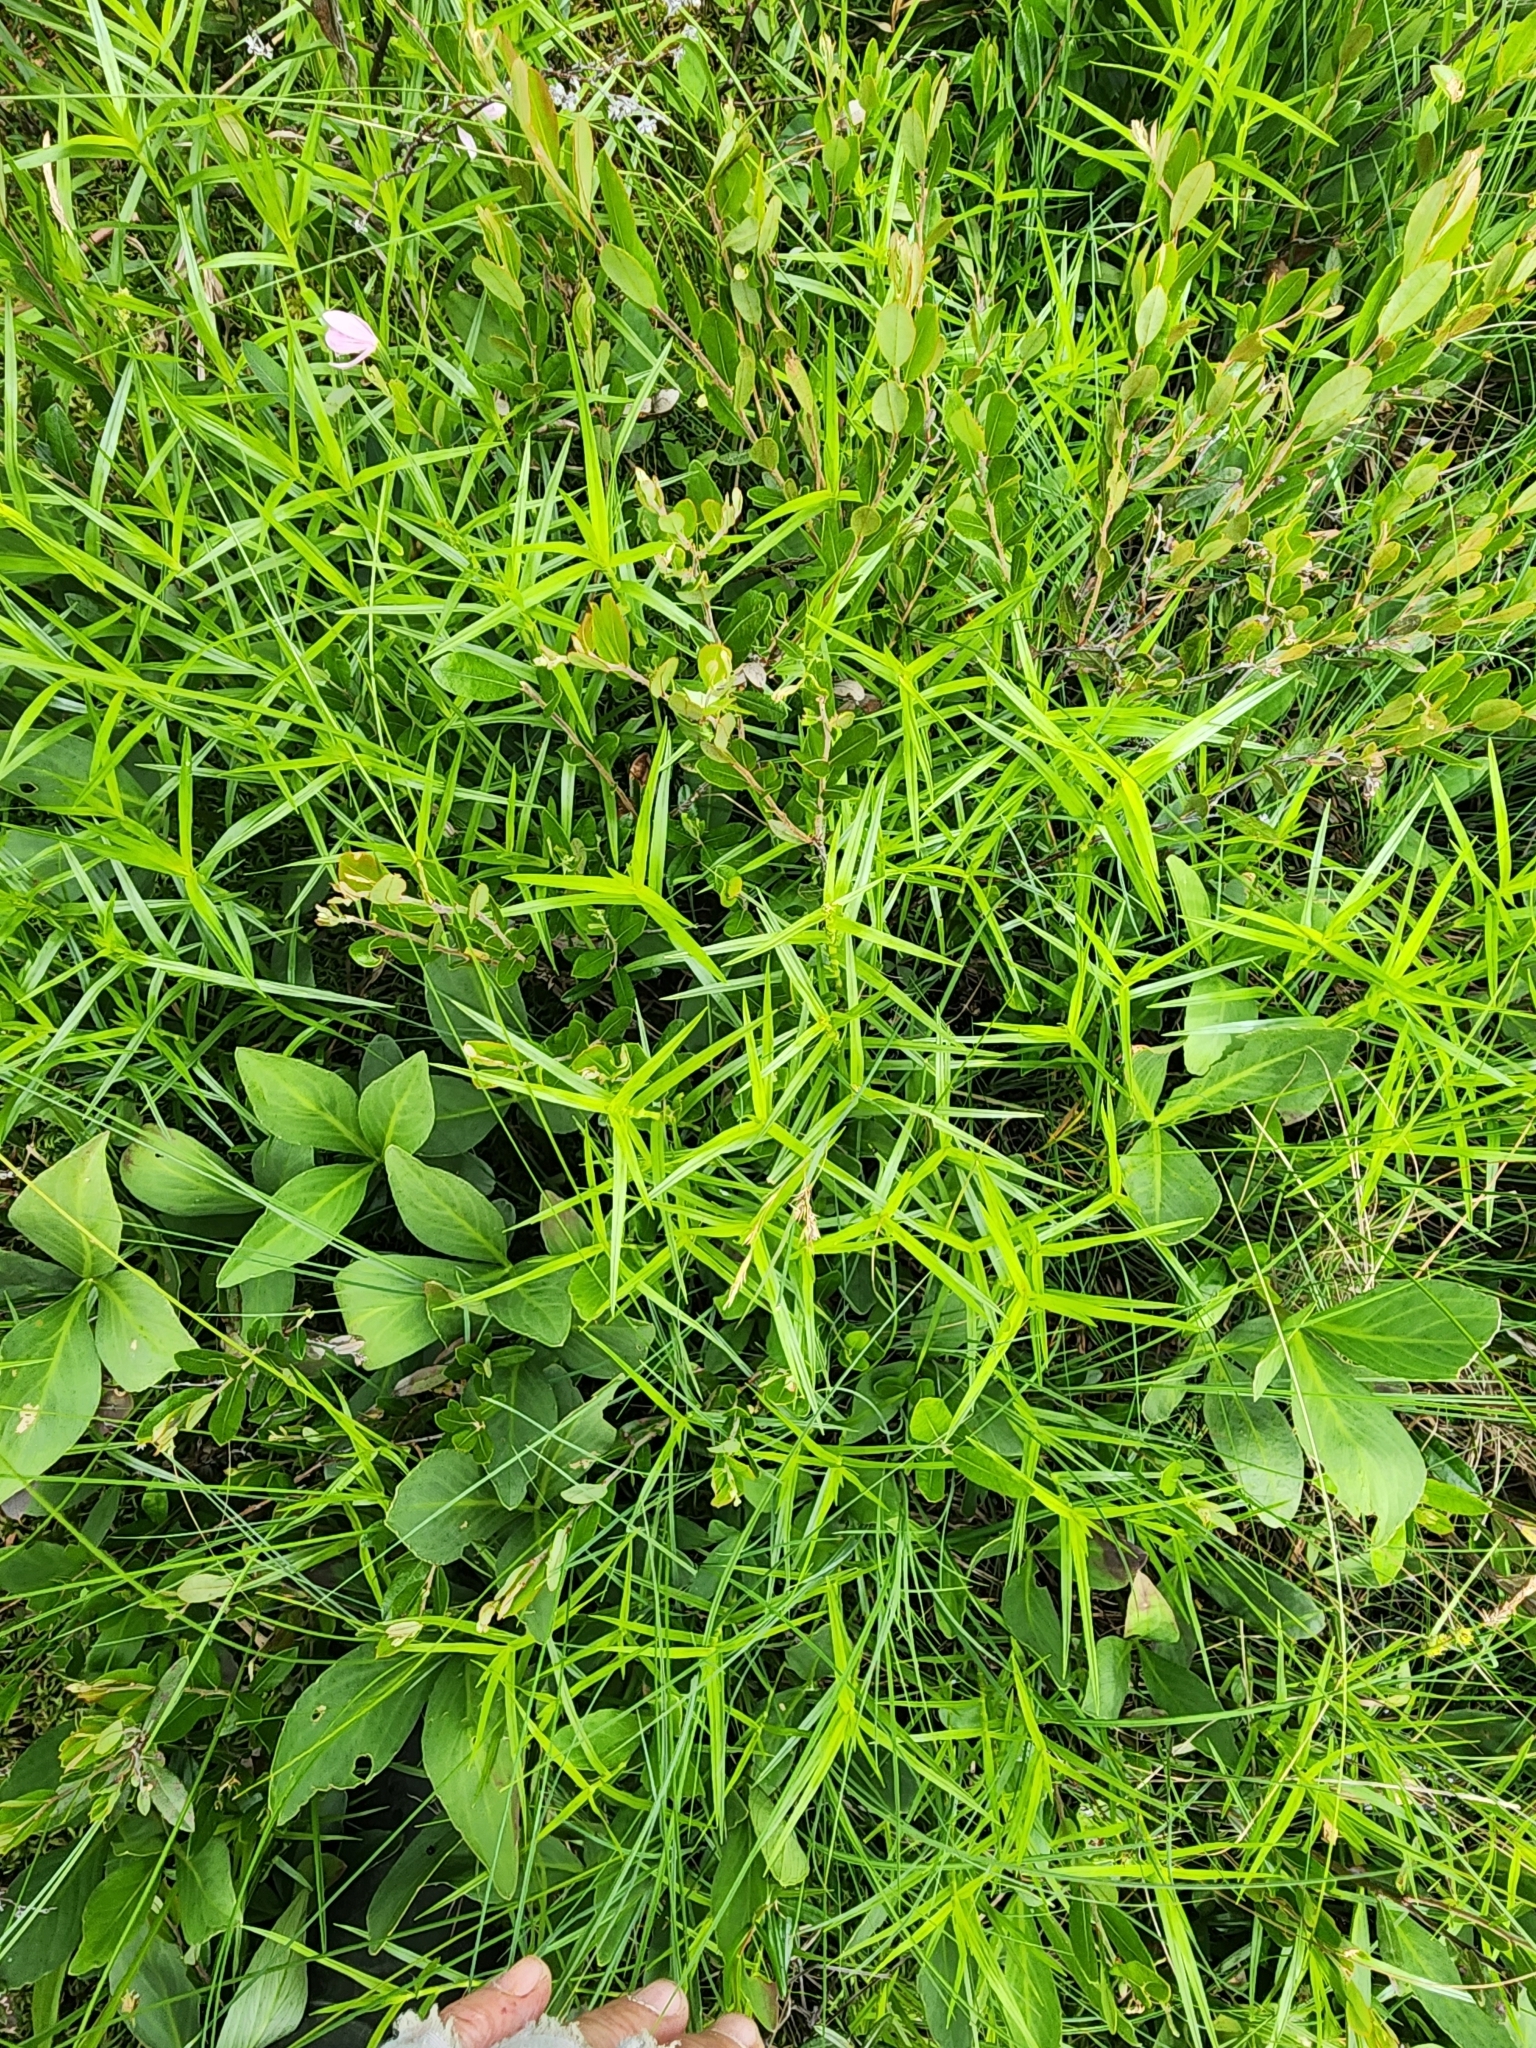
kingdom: Plantae
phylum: Tracheophyta
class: Liliopsida
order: Poales
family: Cyperaceae
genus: Dulichium
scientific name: Dulichium arundinaceum
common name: Three-way sedge
